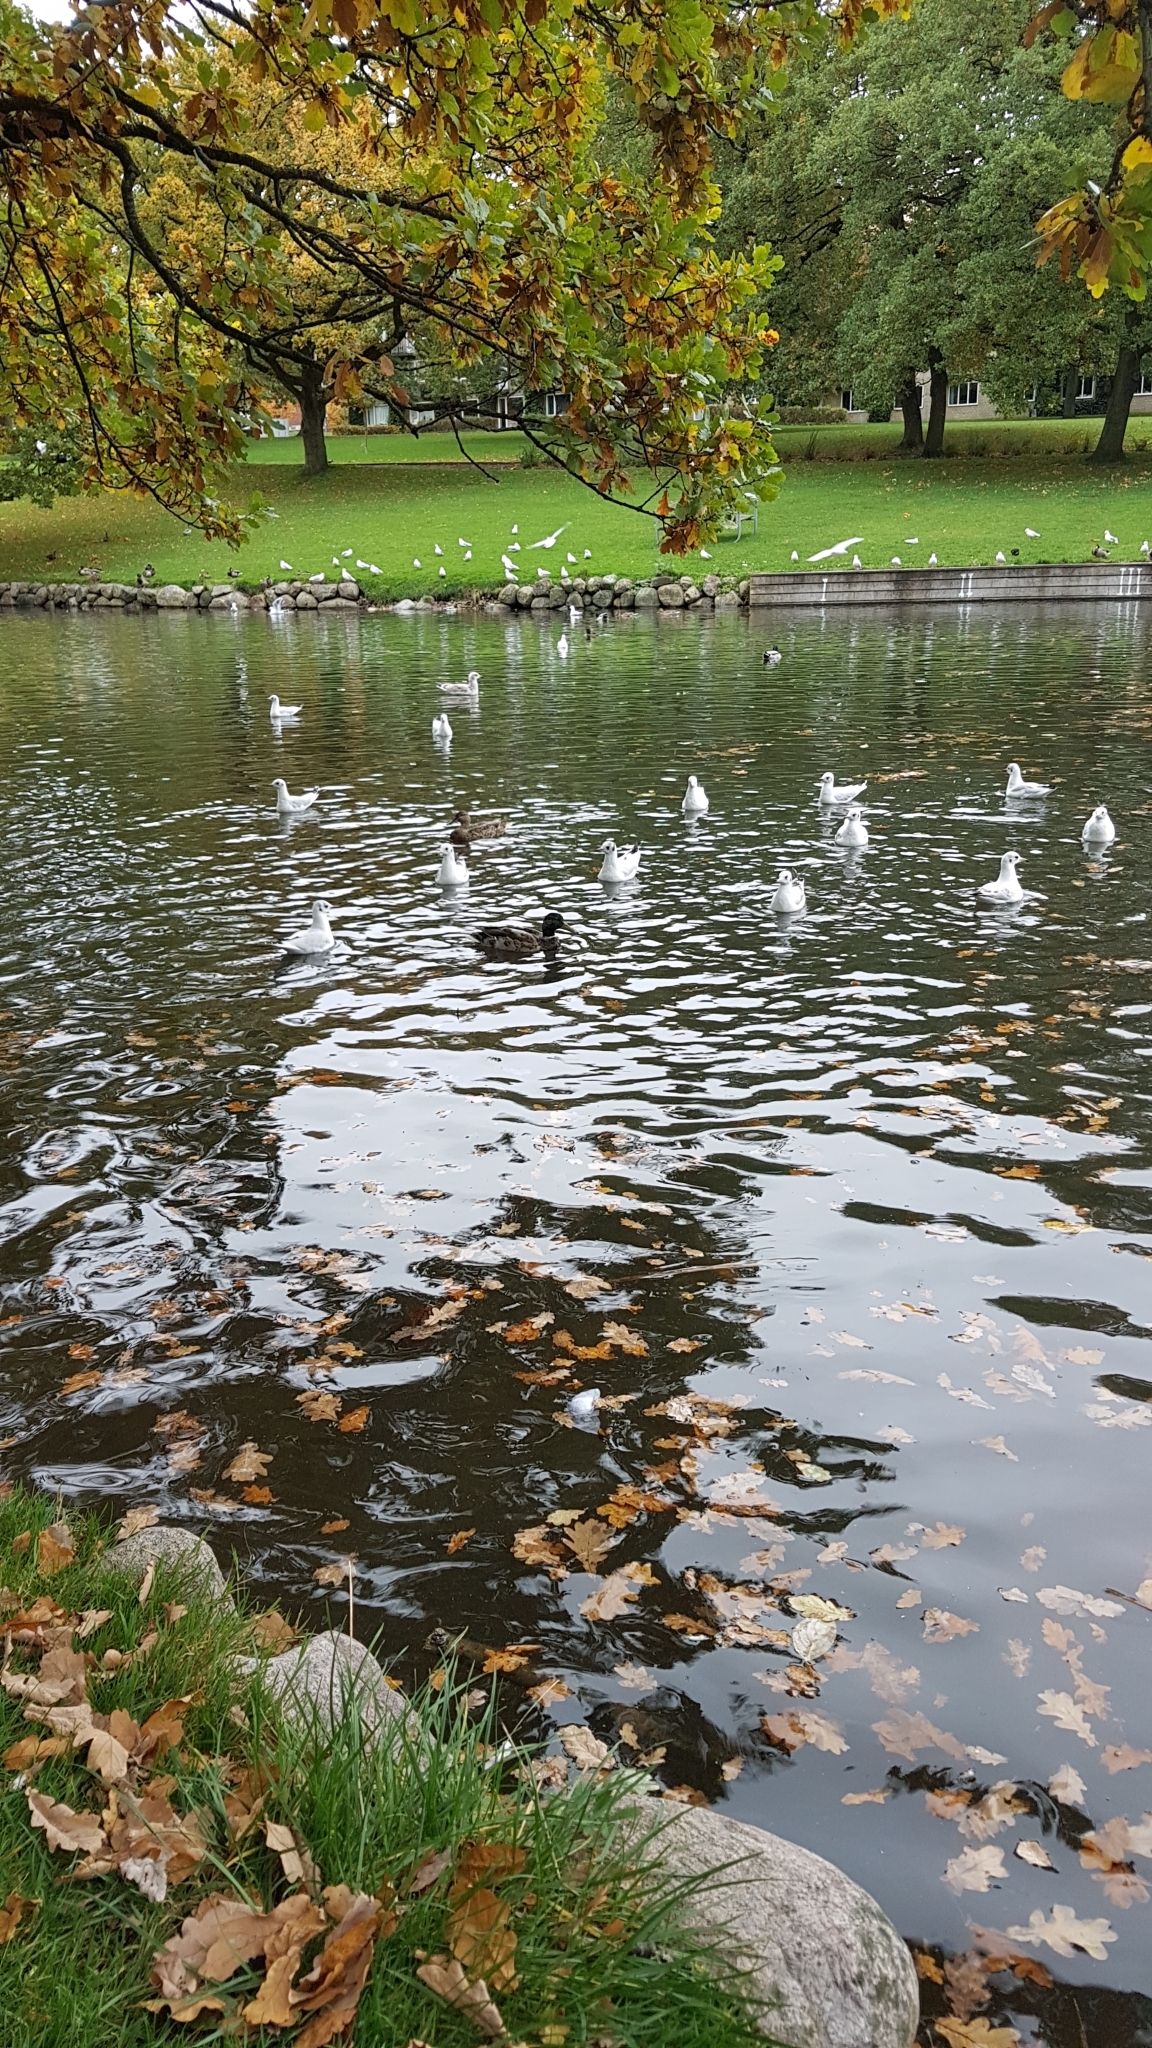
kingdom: Animalia
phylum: Chordata
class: Aves
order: Anseriformes
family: Anatidae
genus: Anas
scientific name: Anas platyrhynchos
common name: Mallard
